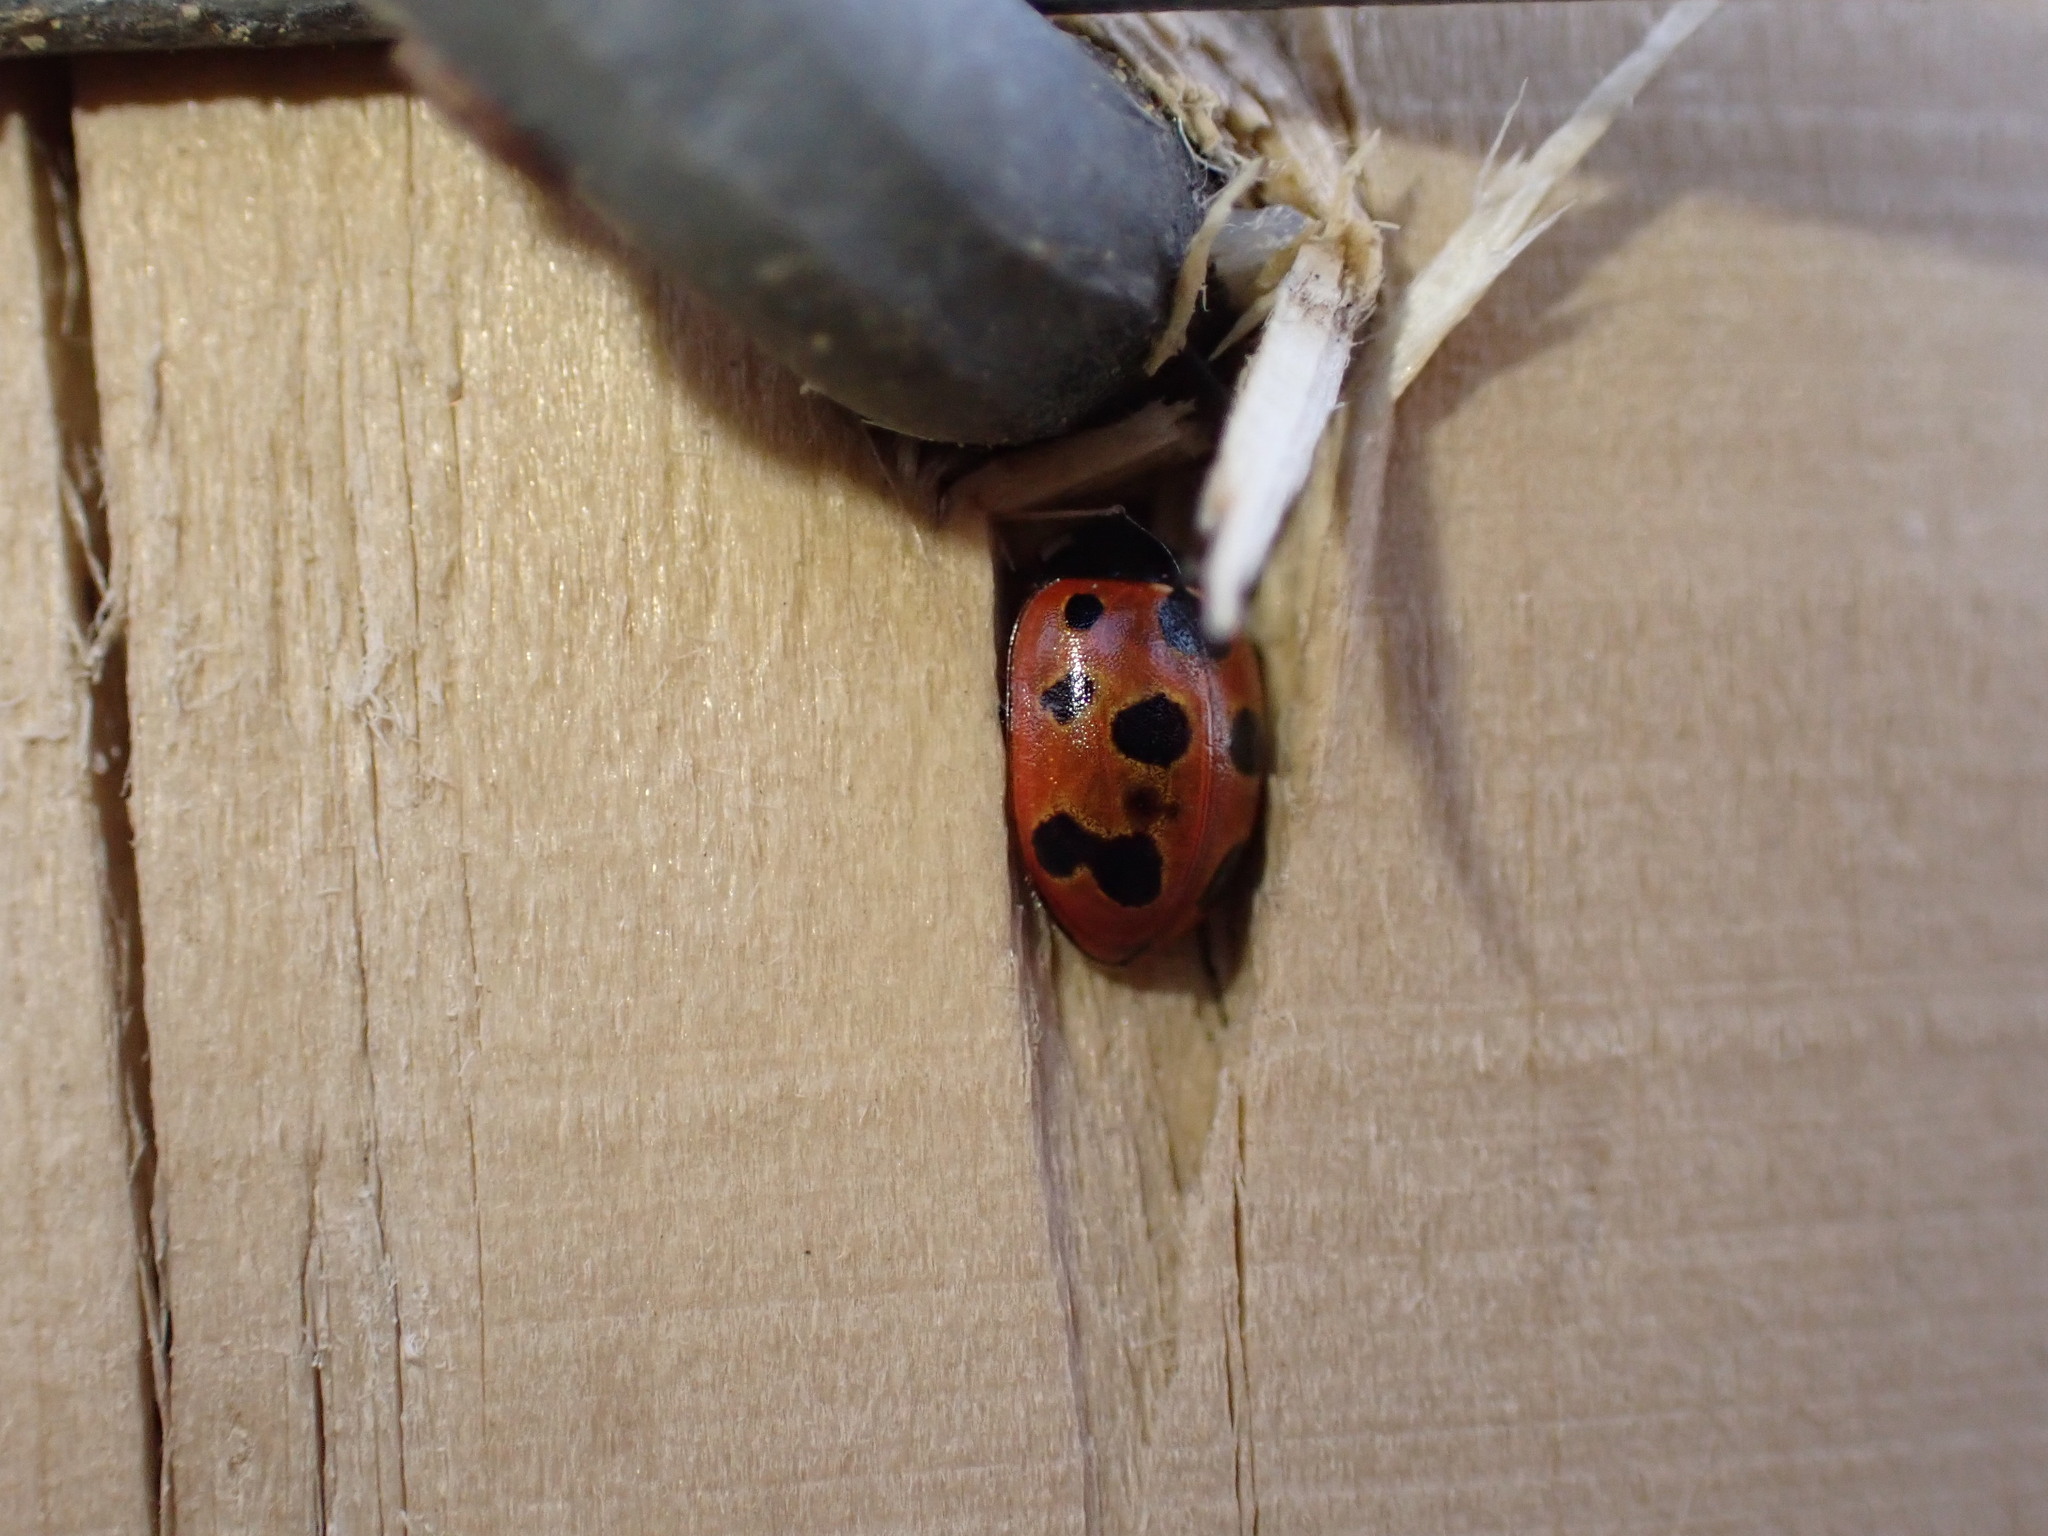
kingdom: Animalia
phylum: Arthropoda
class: Insecta
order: Coleoptera
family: Coccinellidae
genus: Coccinella
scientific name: Coccinella undecimpunctata
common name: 11-spot ladybird
